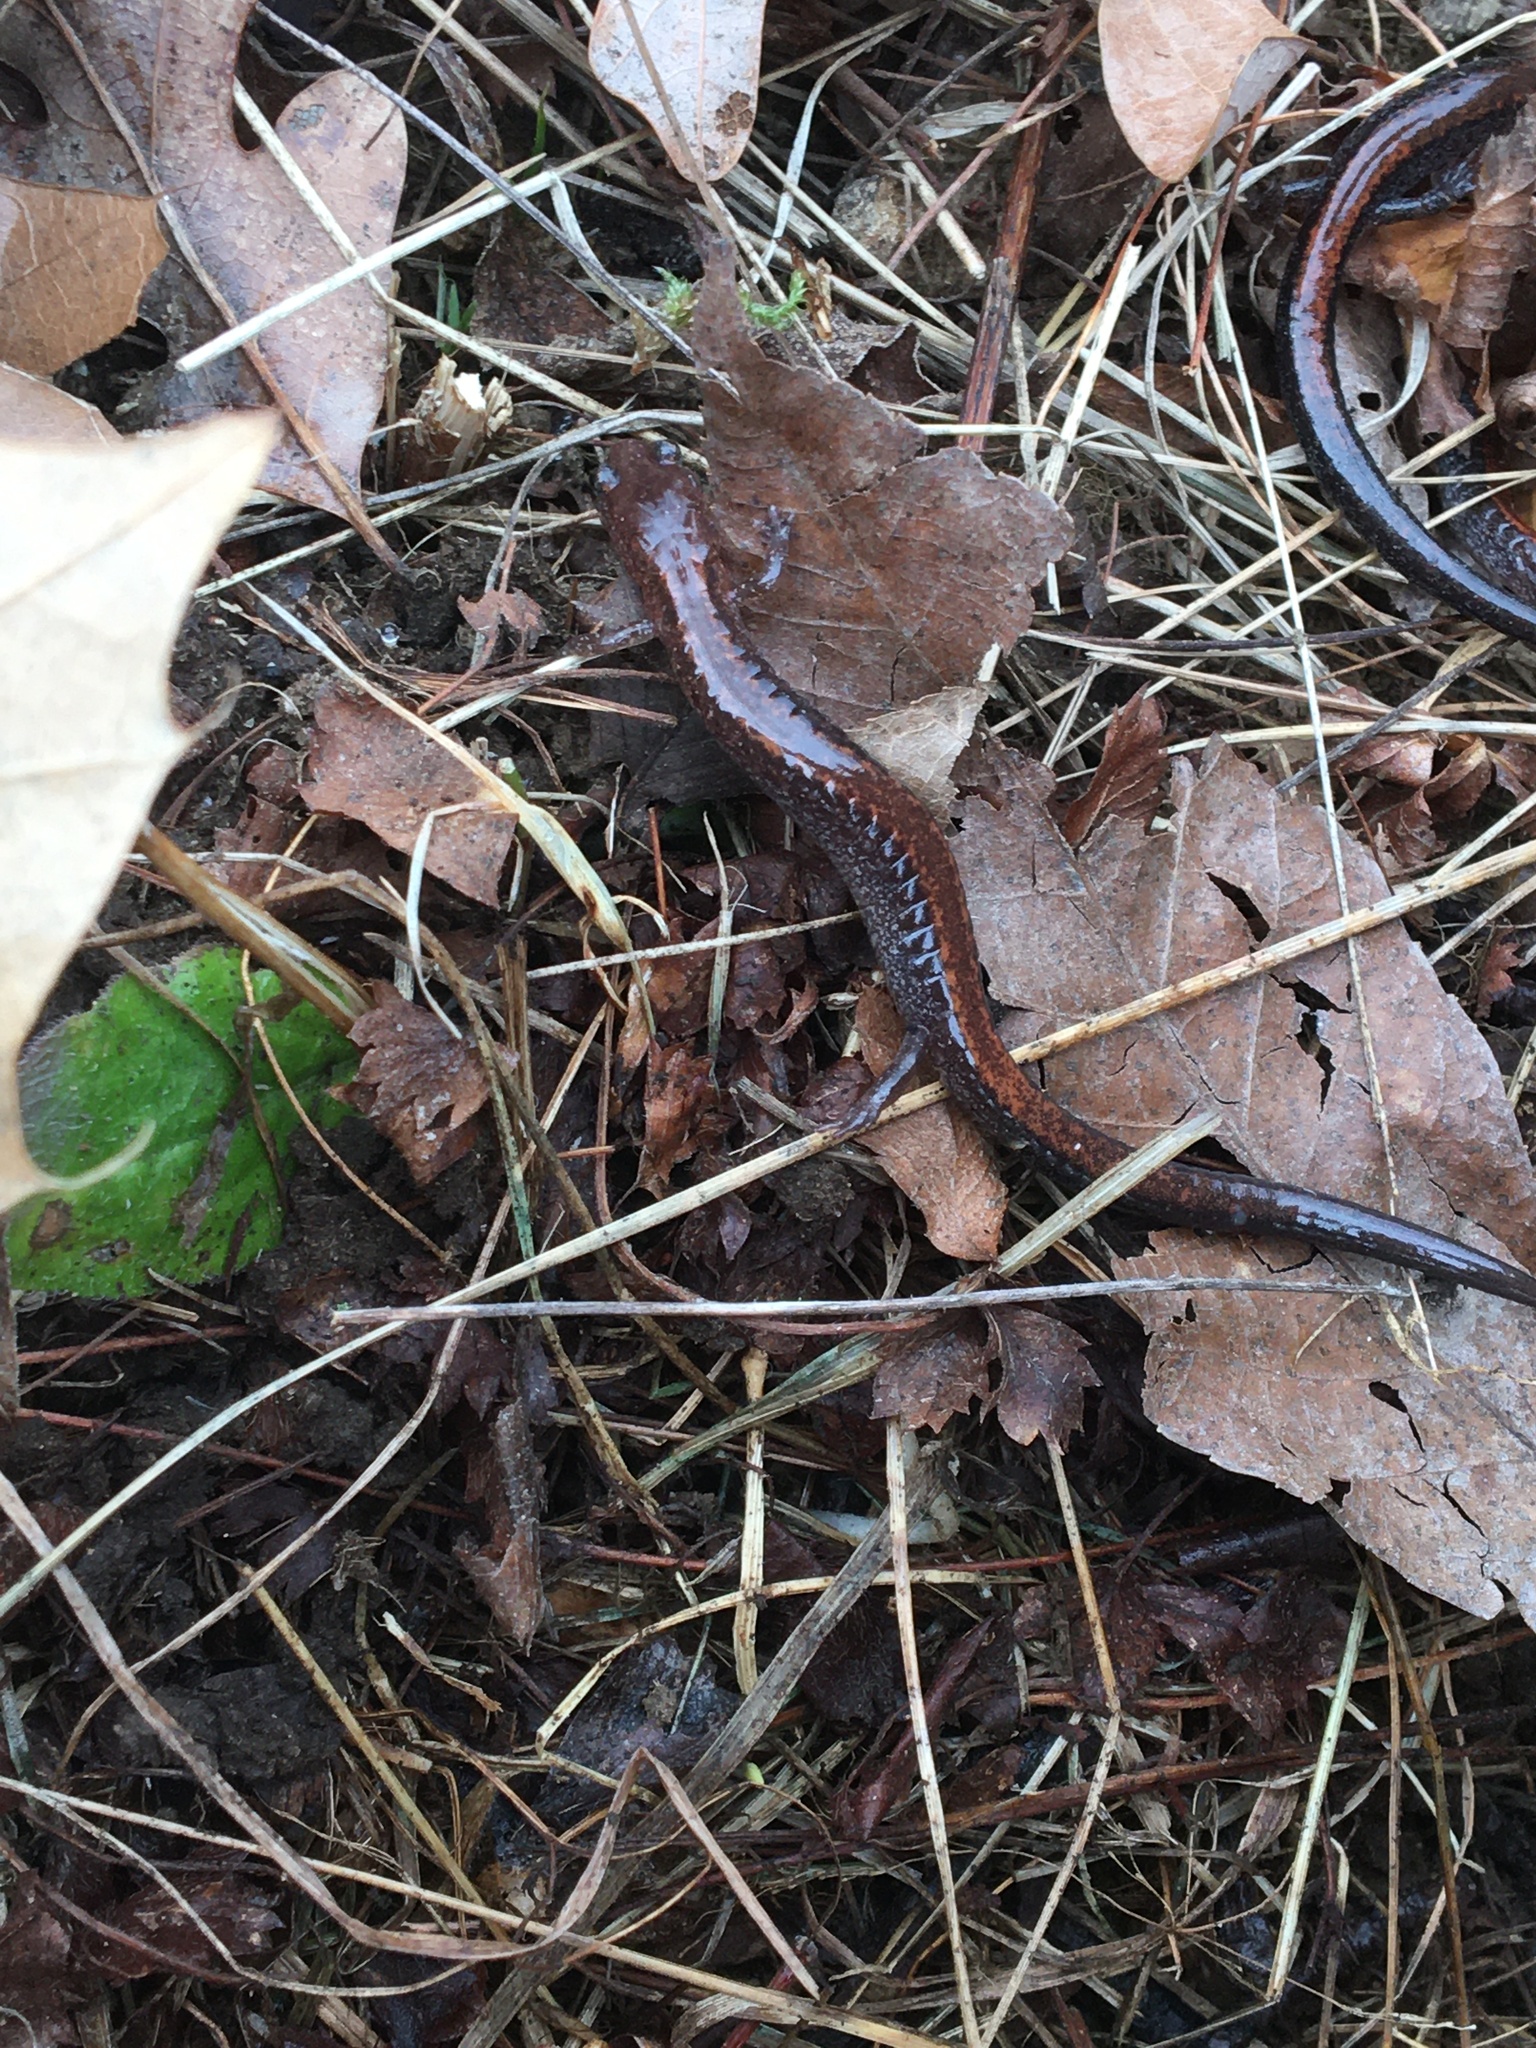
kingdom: Animalia
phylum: Chordata
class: Amphibia
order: Caudata
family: Plethodontidae
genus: Plethodon
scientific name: Plethodon cinereus
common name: Redback salamander
